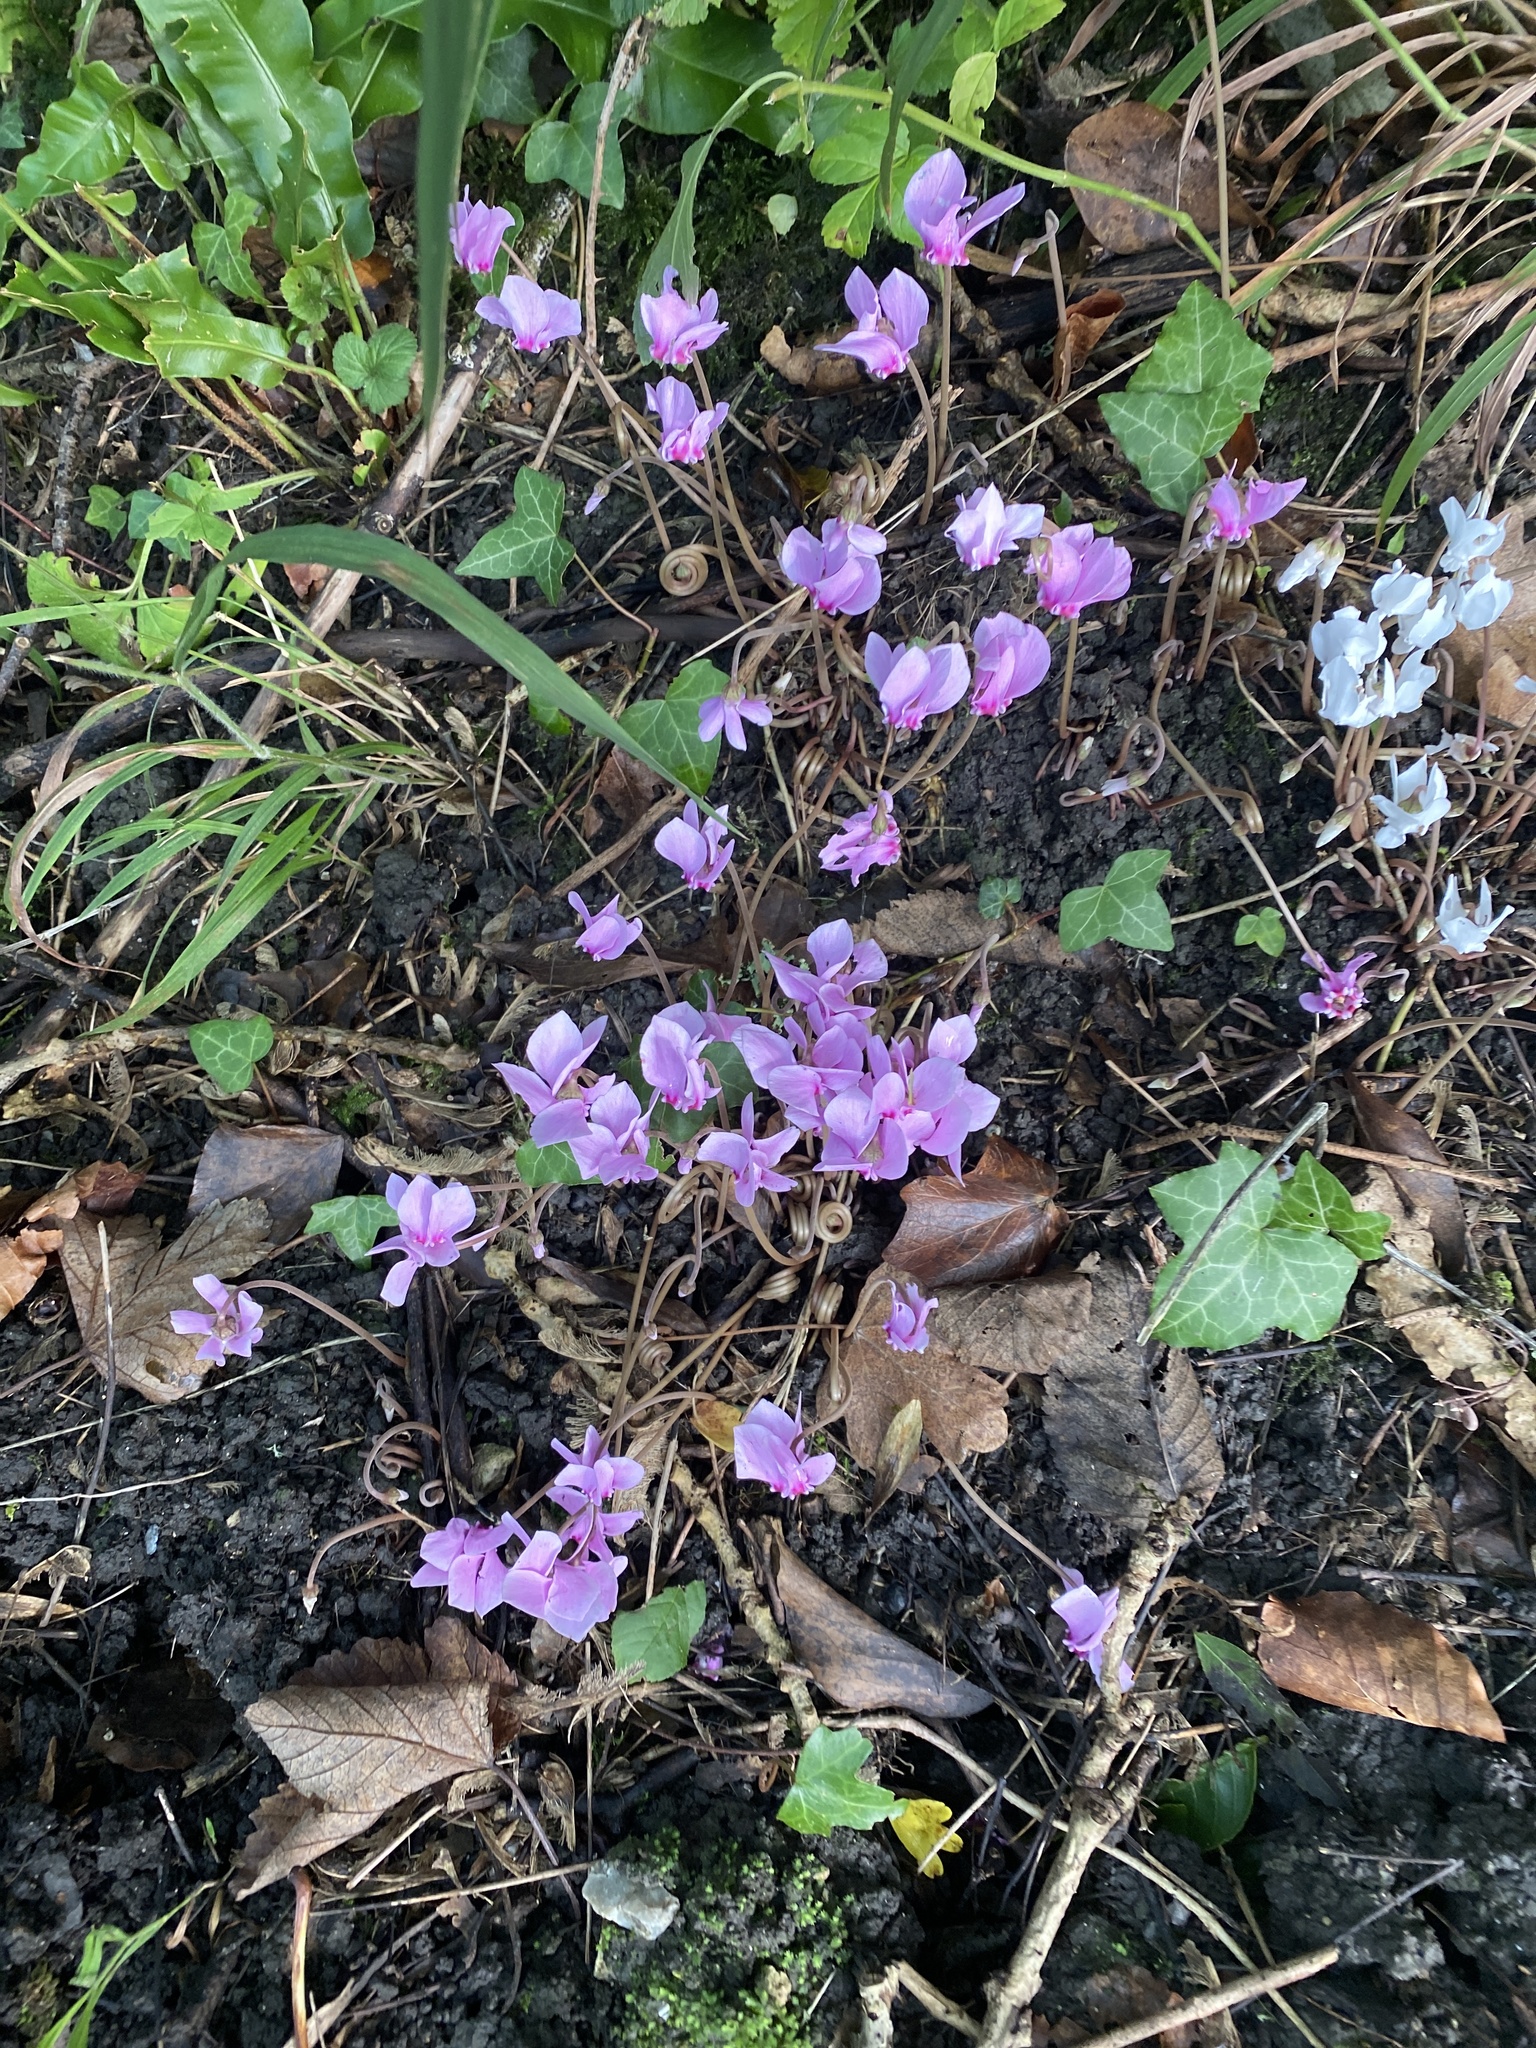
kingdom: Plantae
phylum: Tracheophyta
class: Magnoliopsida
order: Ericales
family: Primulaceae
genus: Cyclamen
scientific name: Cyclamen hederifolium
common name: Sowbread
